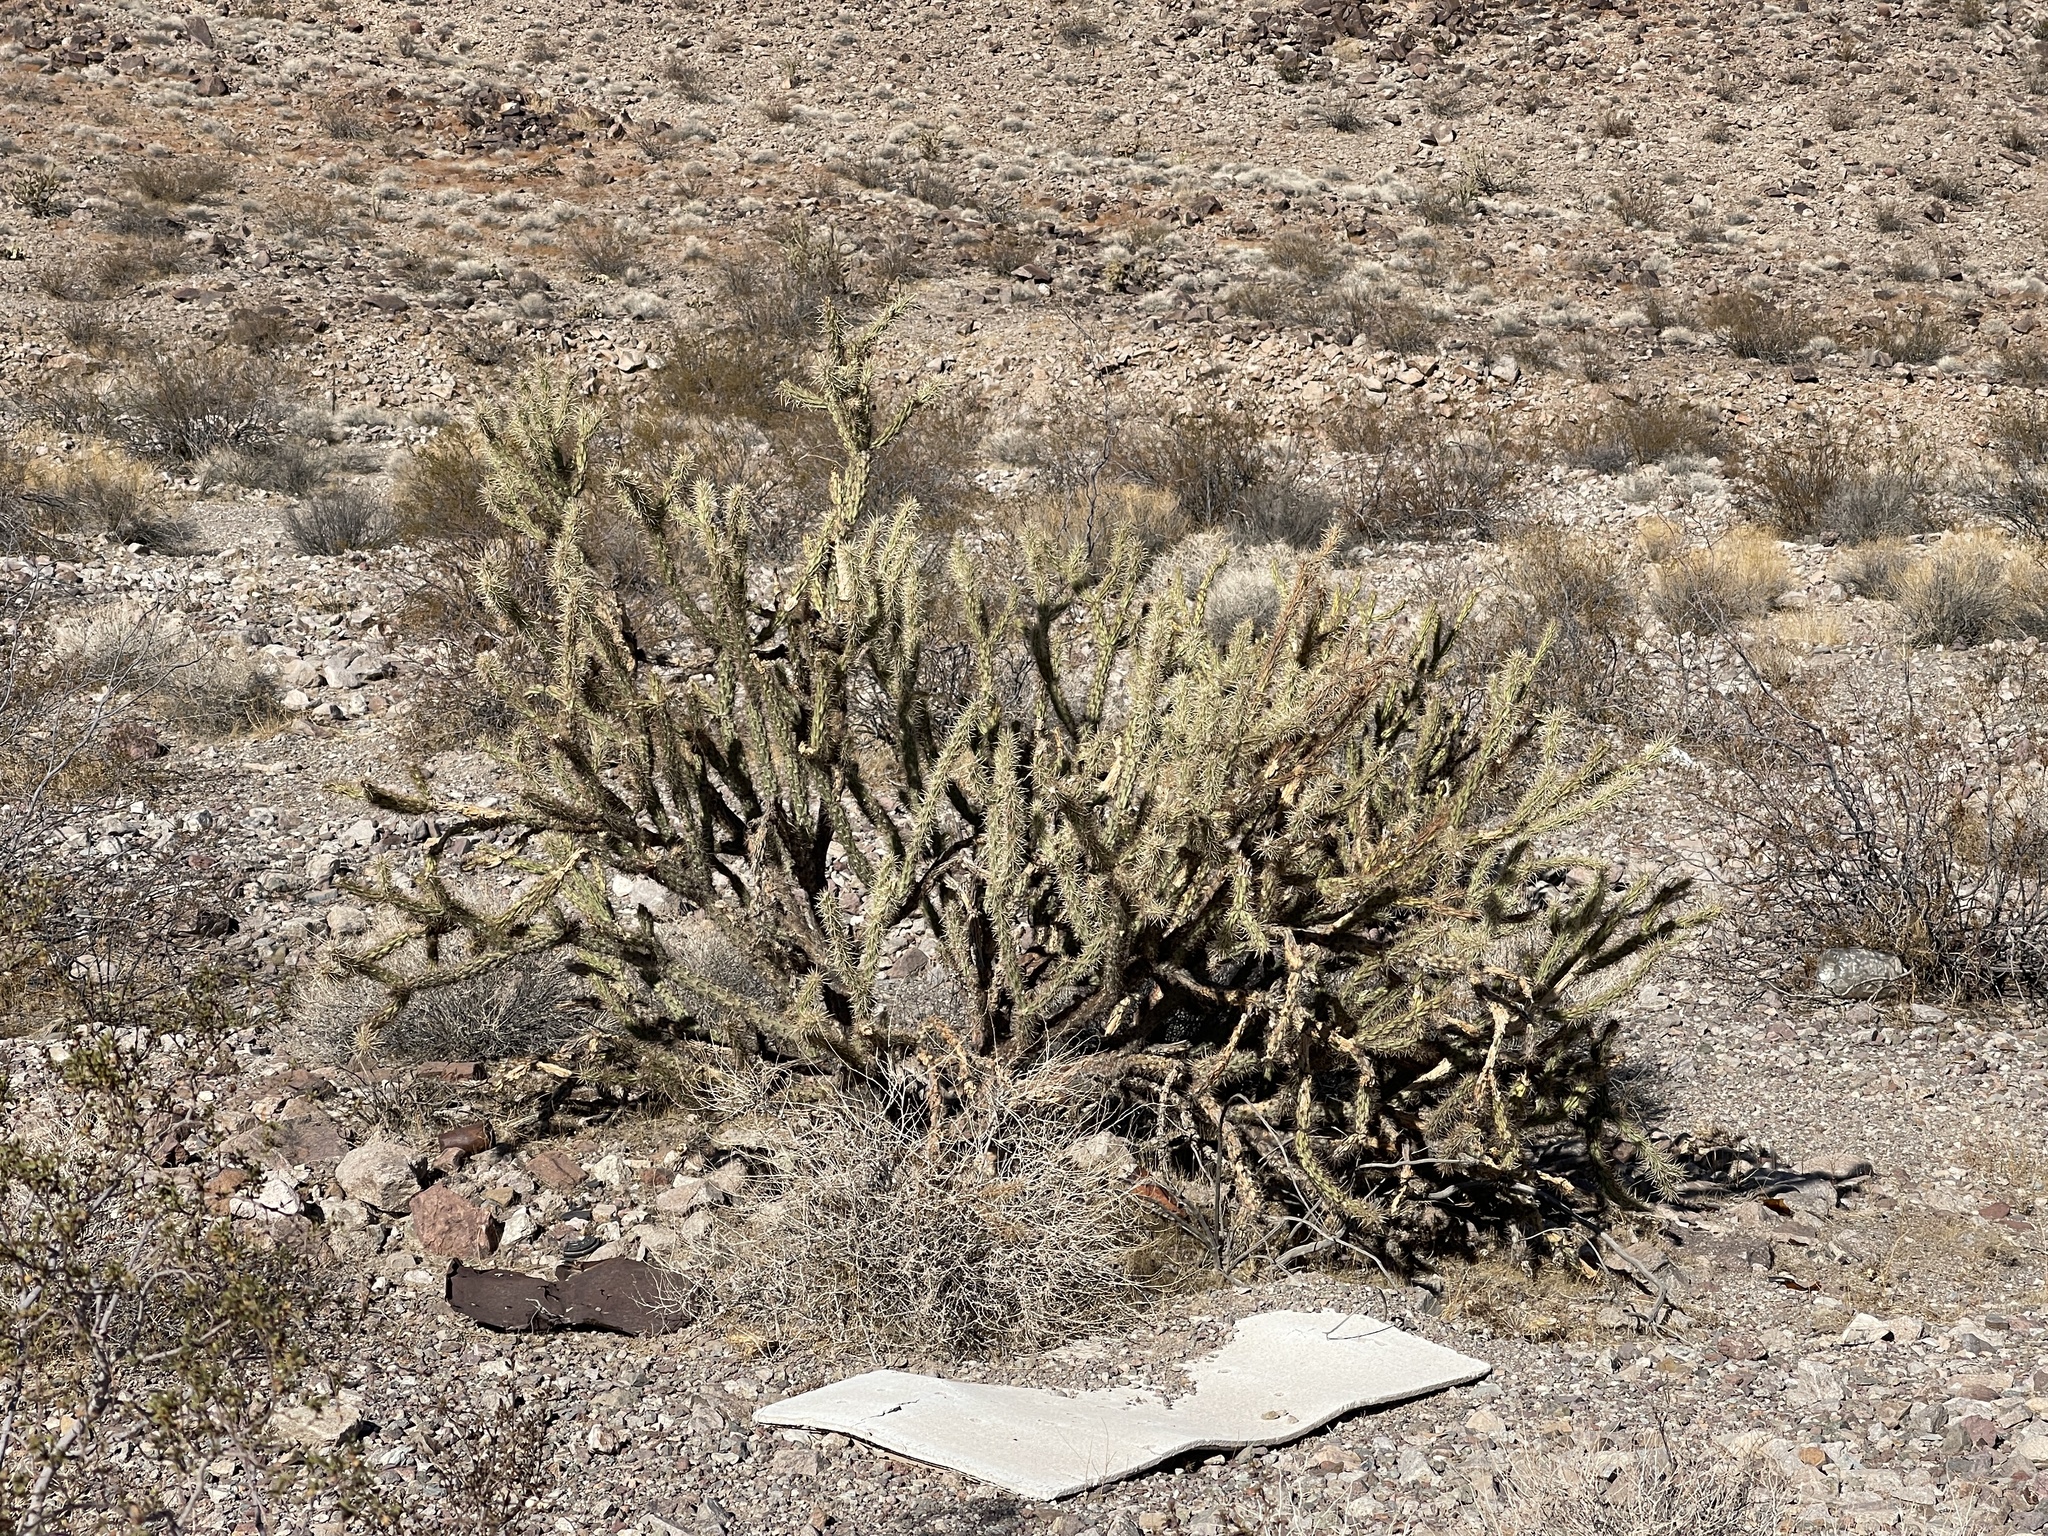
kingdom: Plantae
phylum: Tracheophyta
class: Magnoliopsida
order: Caryophyllales
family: Cactaceae
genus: Cylindropuntia
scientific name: Cylindropuntia acanthocarpa
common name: Buckhorn cholla
